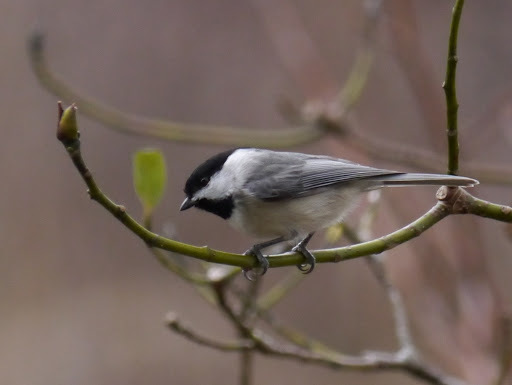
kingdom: Animalia
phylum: Chordata
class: Aves
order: Passeriformes
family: Paridae
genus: Poecile
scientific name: Poecile carolinensis
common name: Carolina chickadee
